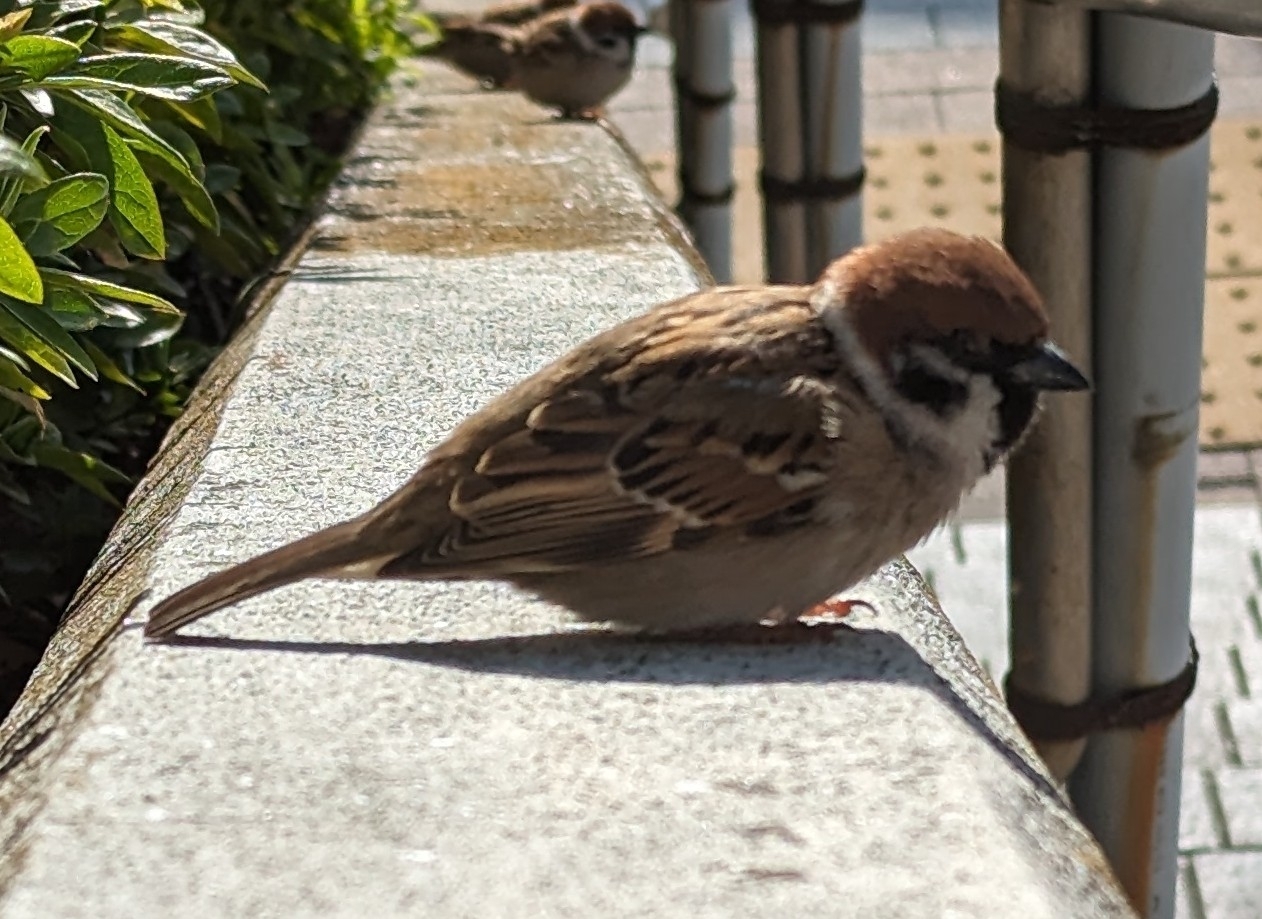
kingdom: Animalia
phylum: Chordata
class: Aves
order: Passeriformes
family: Passeridae
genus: Passer
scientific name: Passer montanus
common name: Eurasian tree sparrow
